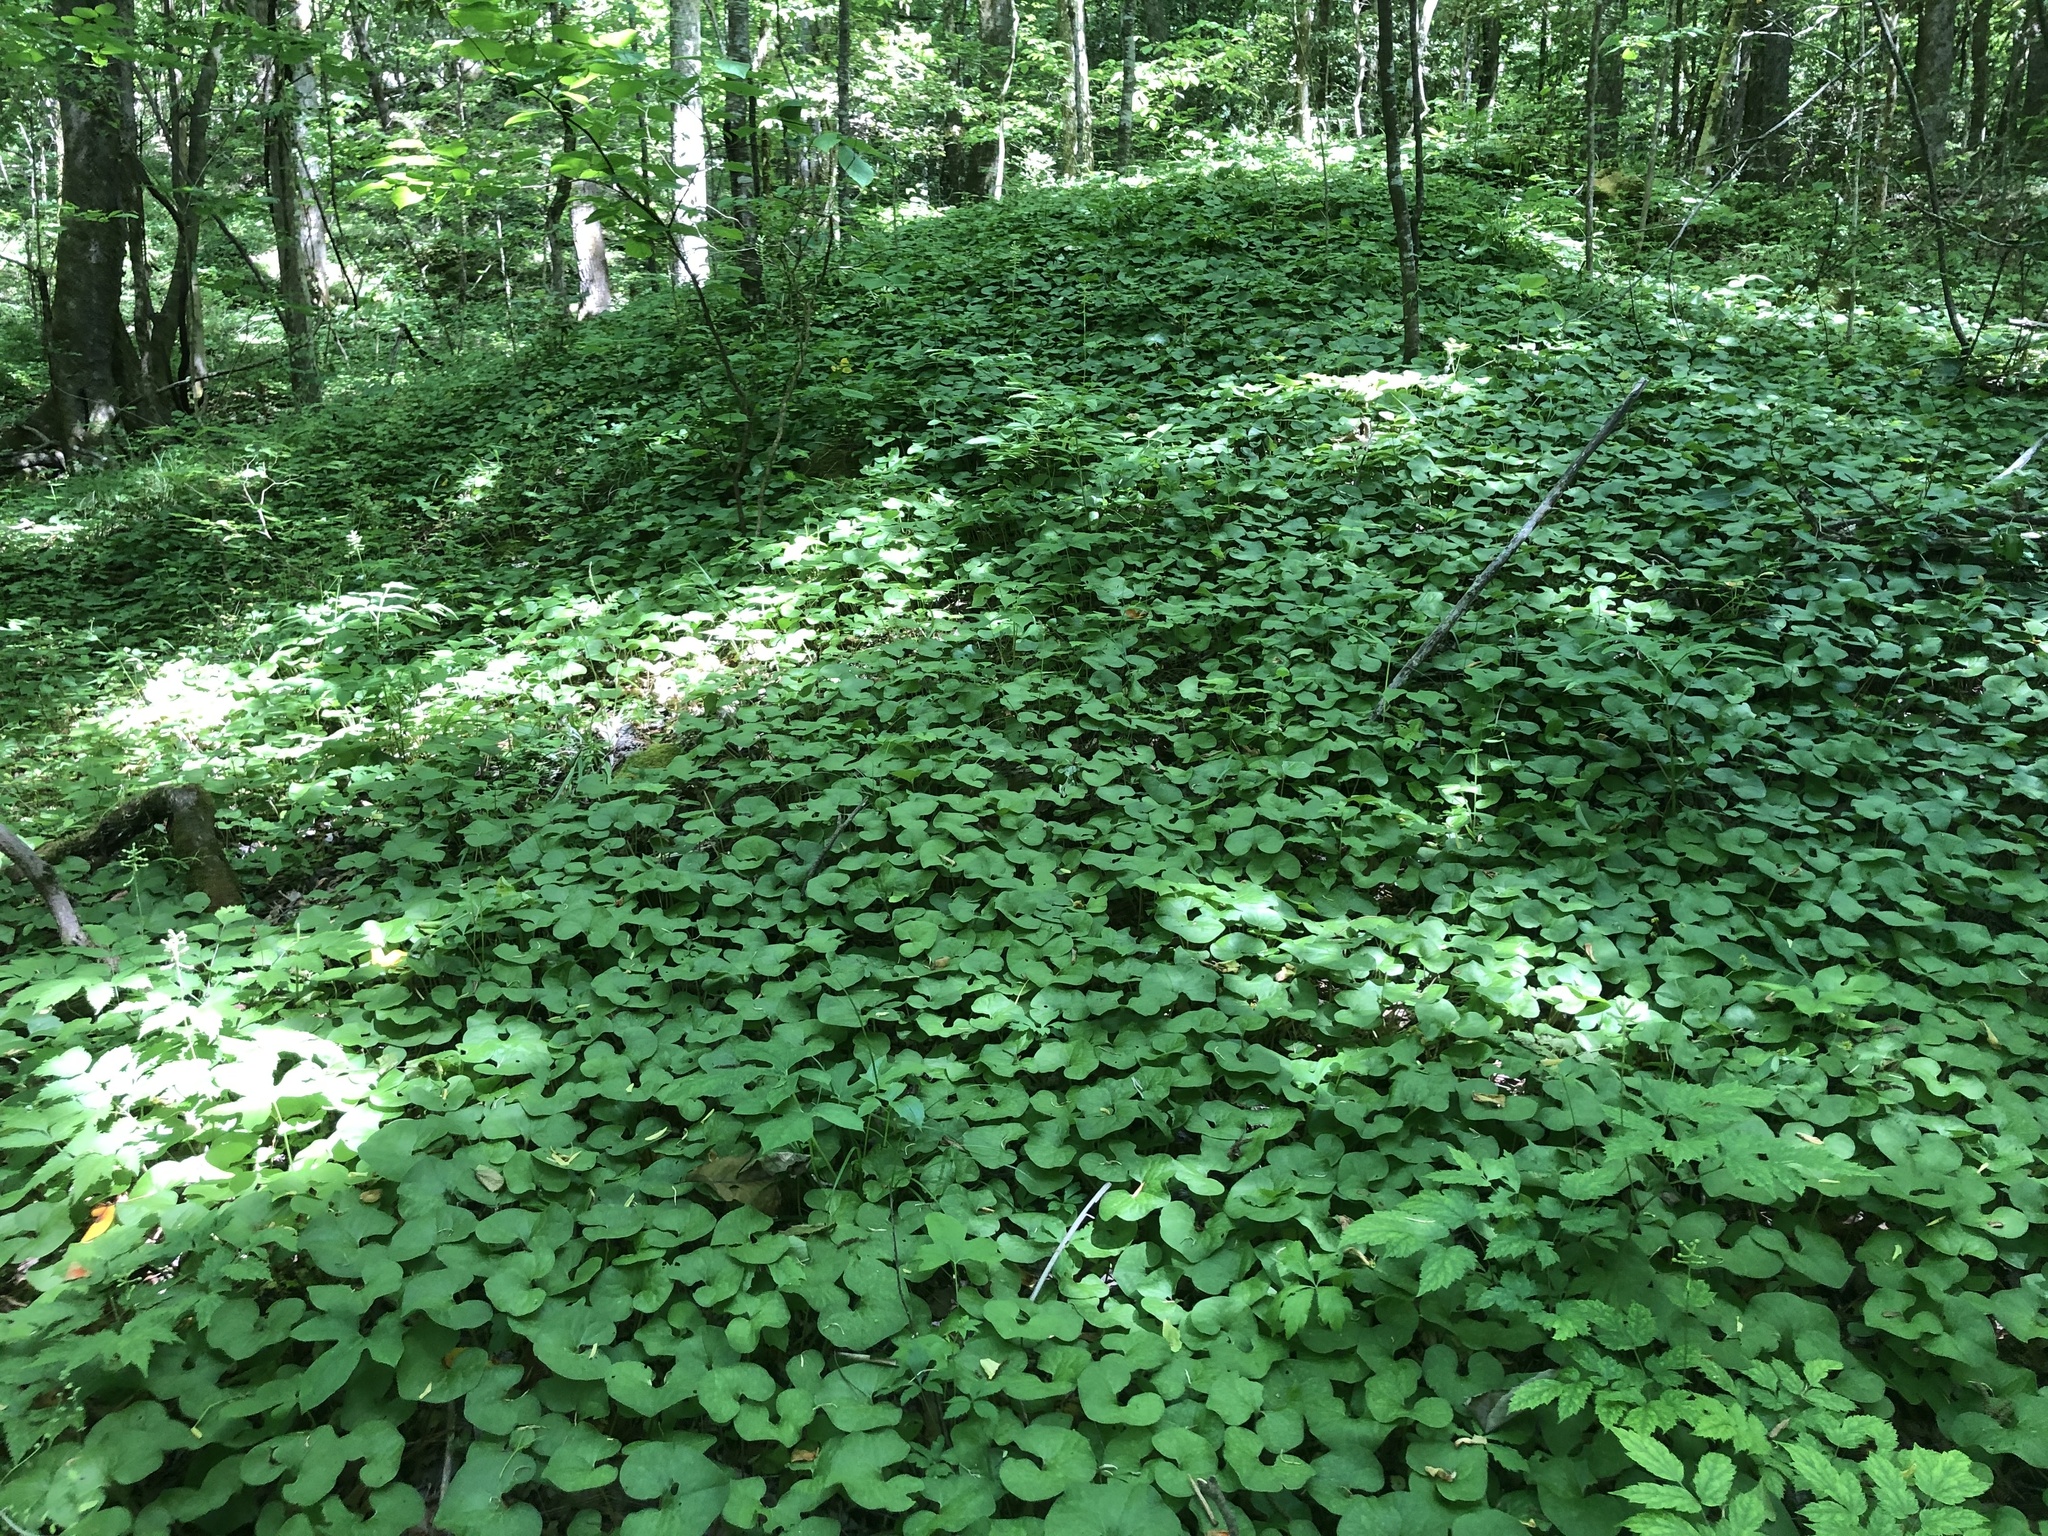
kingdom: Plantae
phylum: Tracheophyta
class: Magnoliopsida
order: Piperales
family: Aristolochiaceae
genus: Asarum
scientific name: Asarum canadense
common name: Wild ginger
